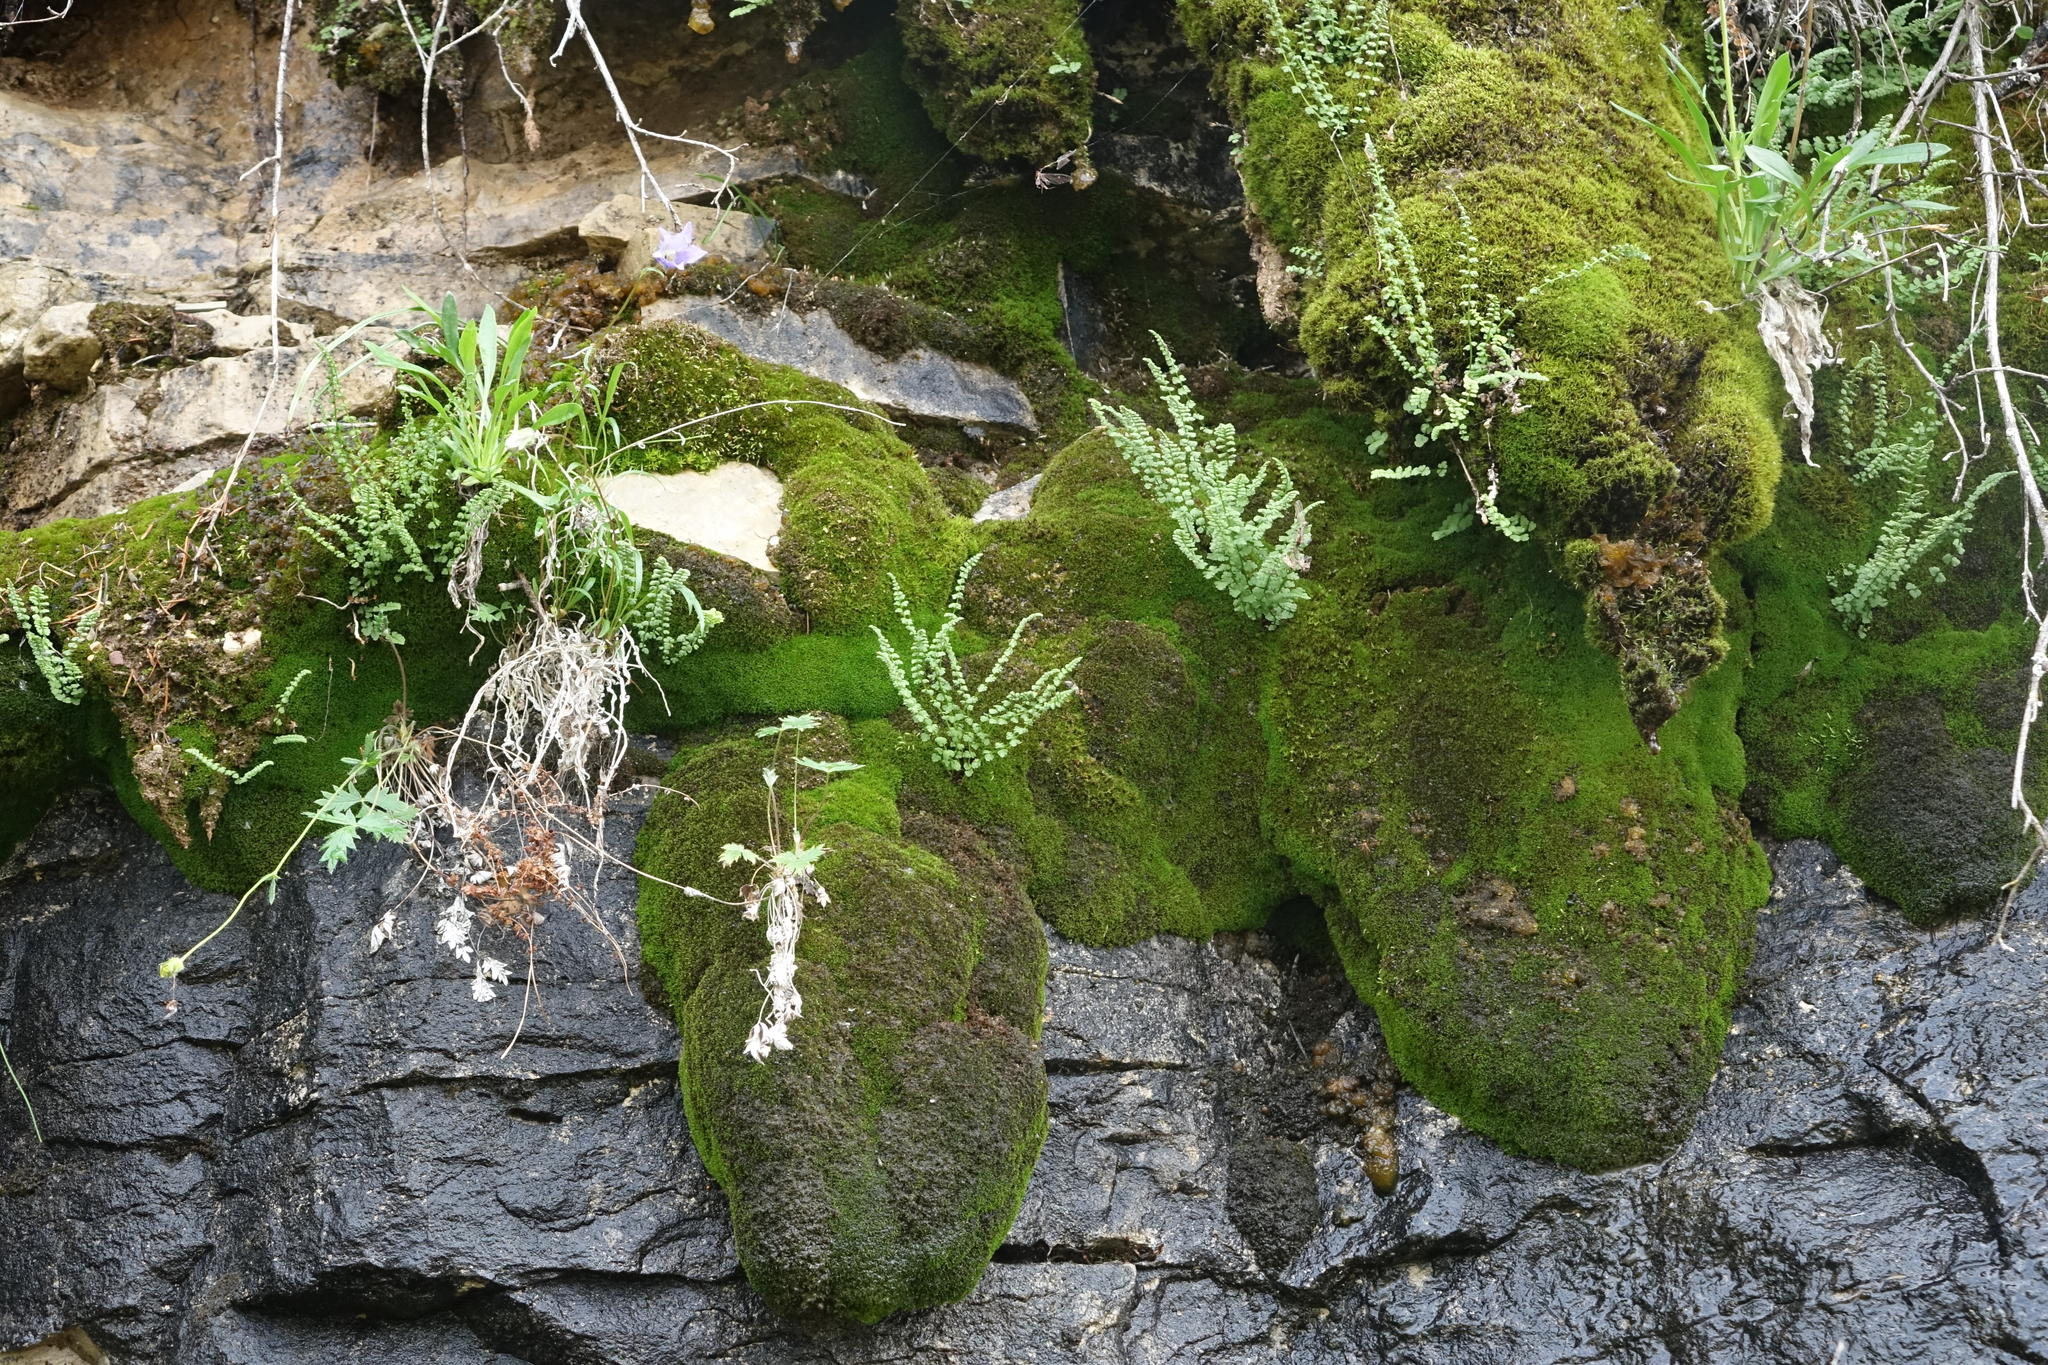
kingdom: Plantae
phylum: Tracheophyta
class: Polypodiopsida
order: Polypodiales
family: Woodsiaceae
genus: Woodsia
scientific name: Woodsia glabella
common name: Smooth woodsia
